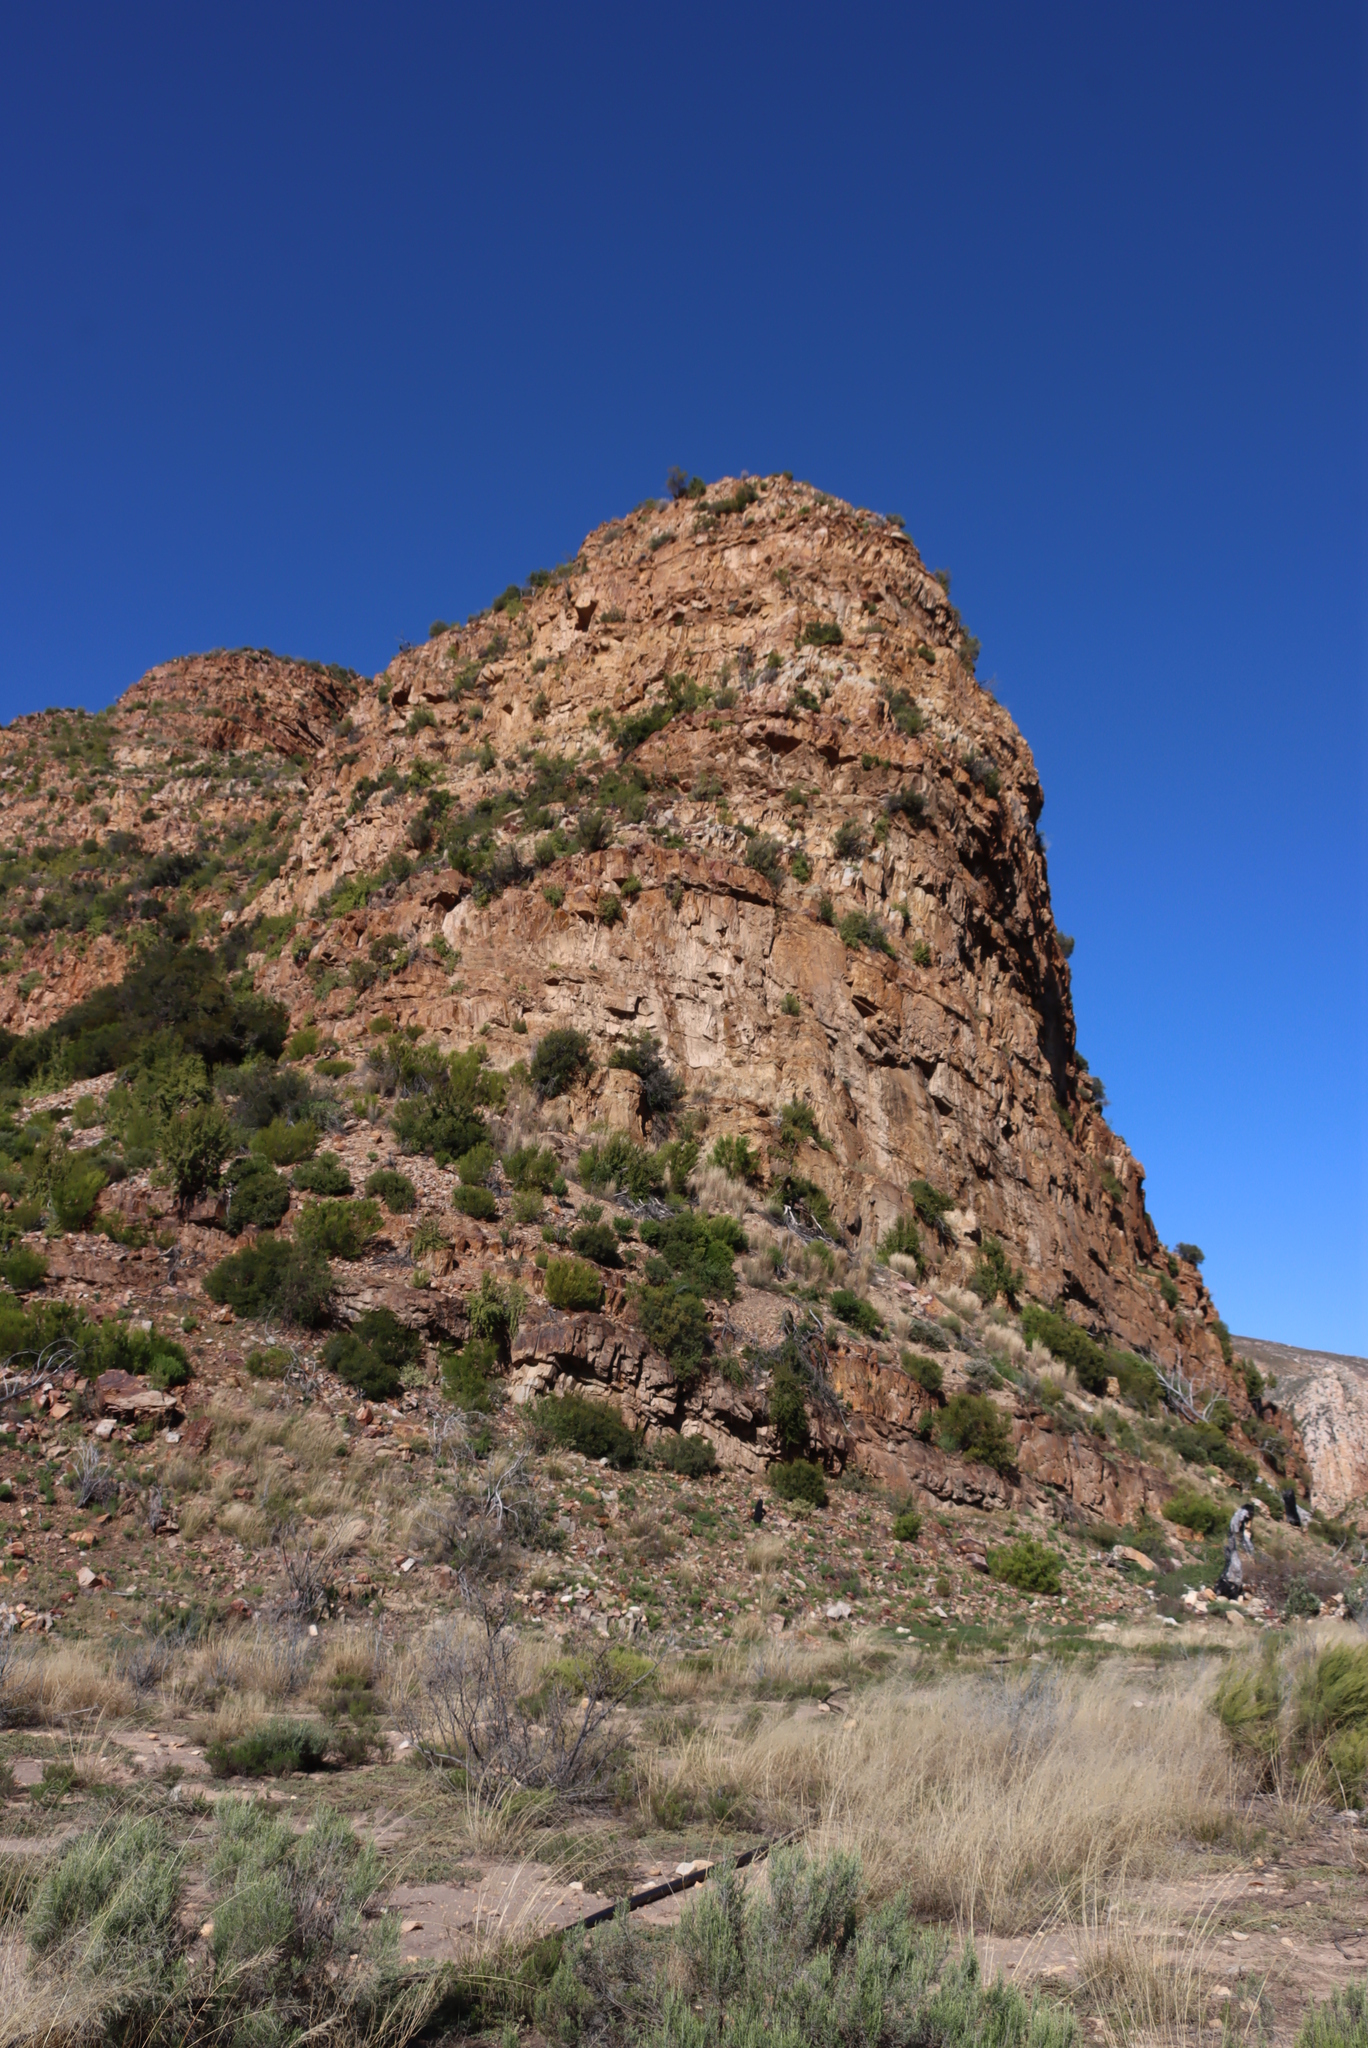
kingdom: Plantae
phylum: Tracheophyta
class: Magnoliopsida
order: Sapindales
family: Sapindaceae
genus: Dodonaea
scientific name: Dodonaea viscosa
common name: Hopbush
